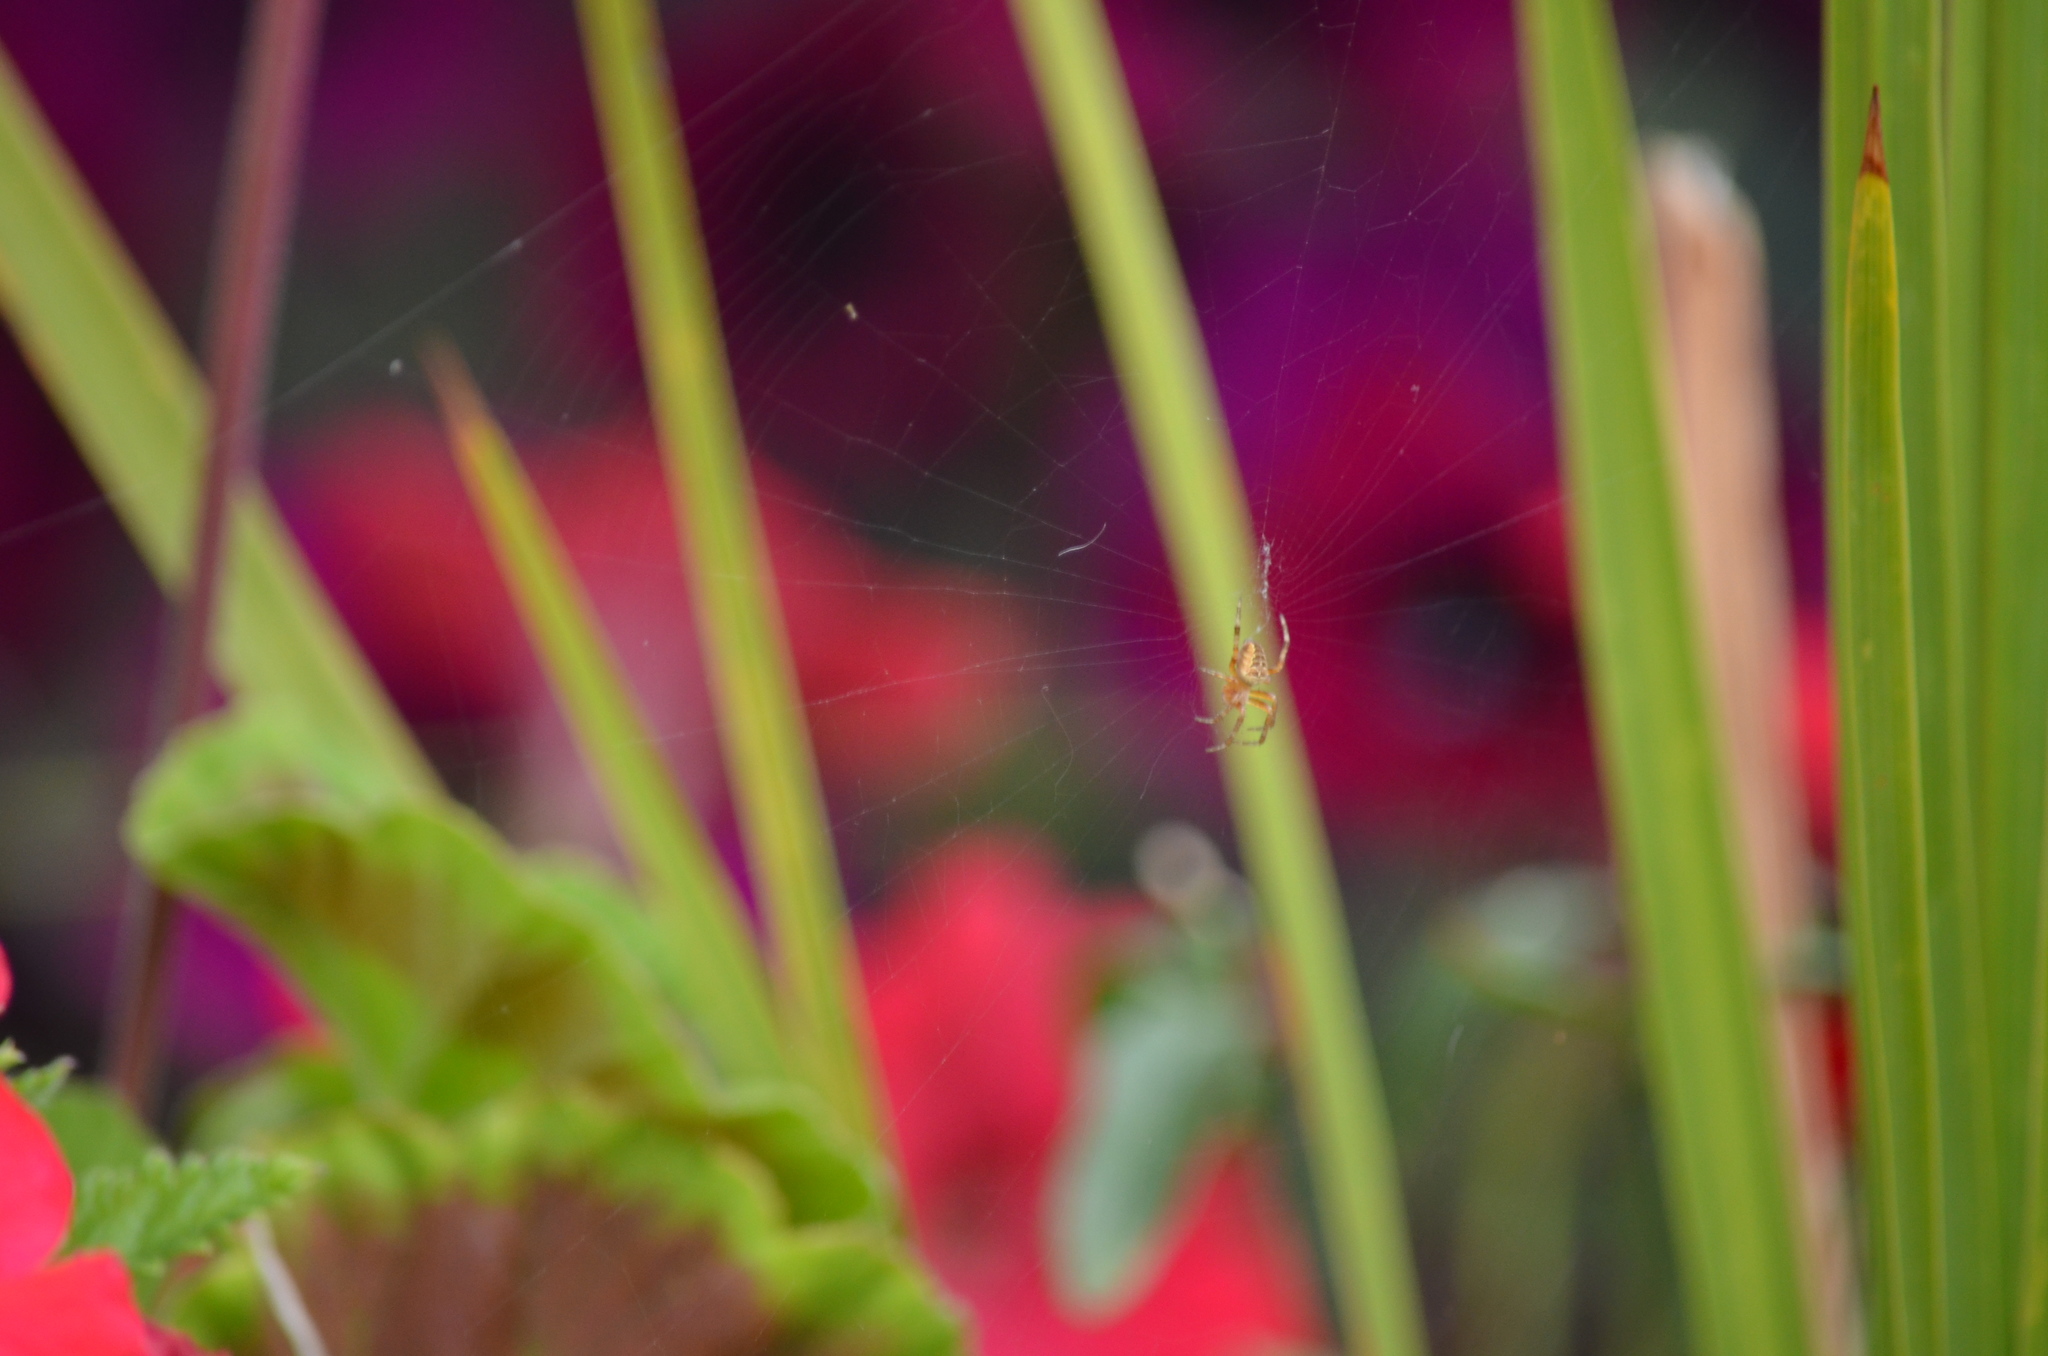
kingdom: Animalia
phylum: Arthropoda
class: Arachnida
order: Araneae
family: Araneidae
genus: Araneus
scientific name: Araneus diadematus
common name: Cross orbweaver
